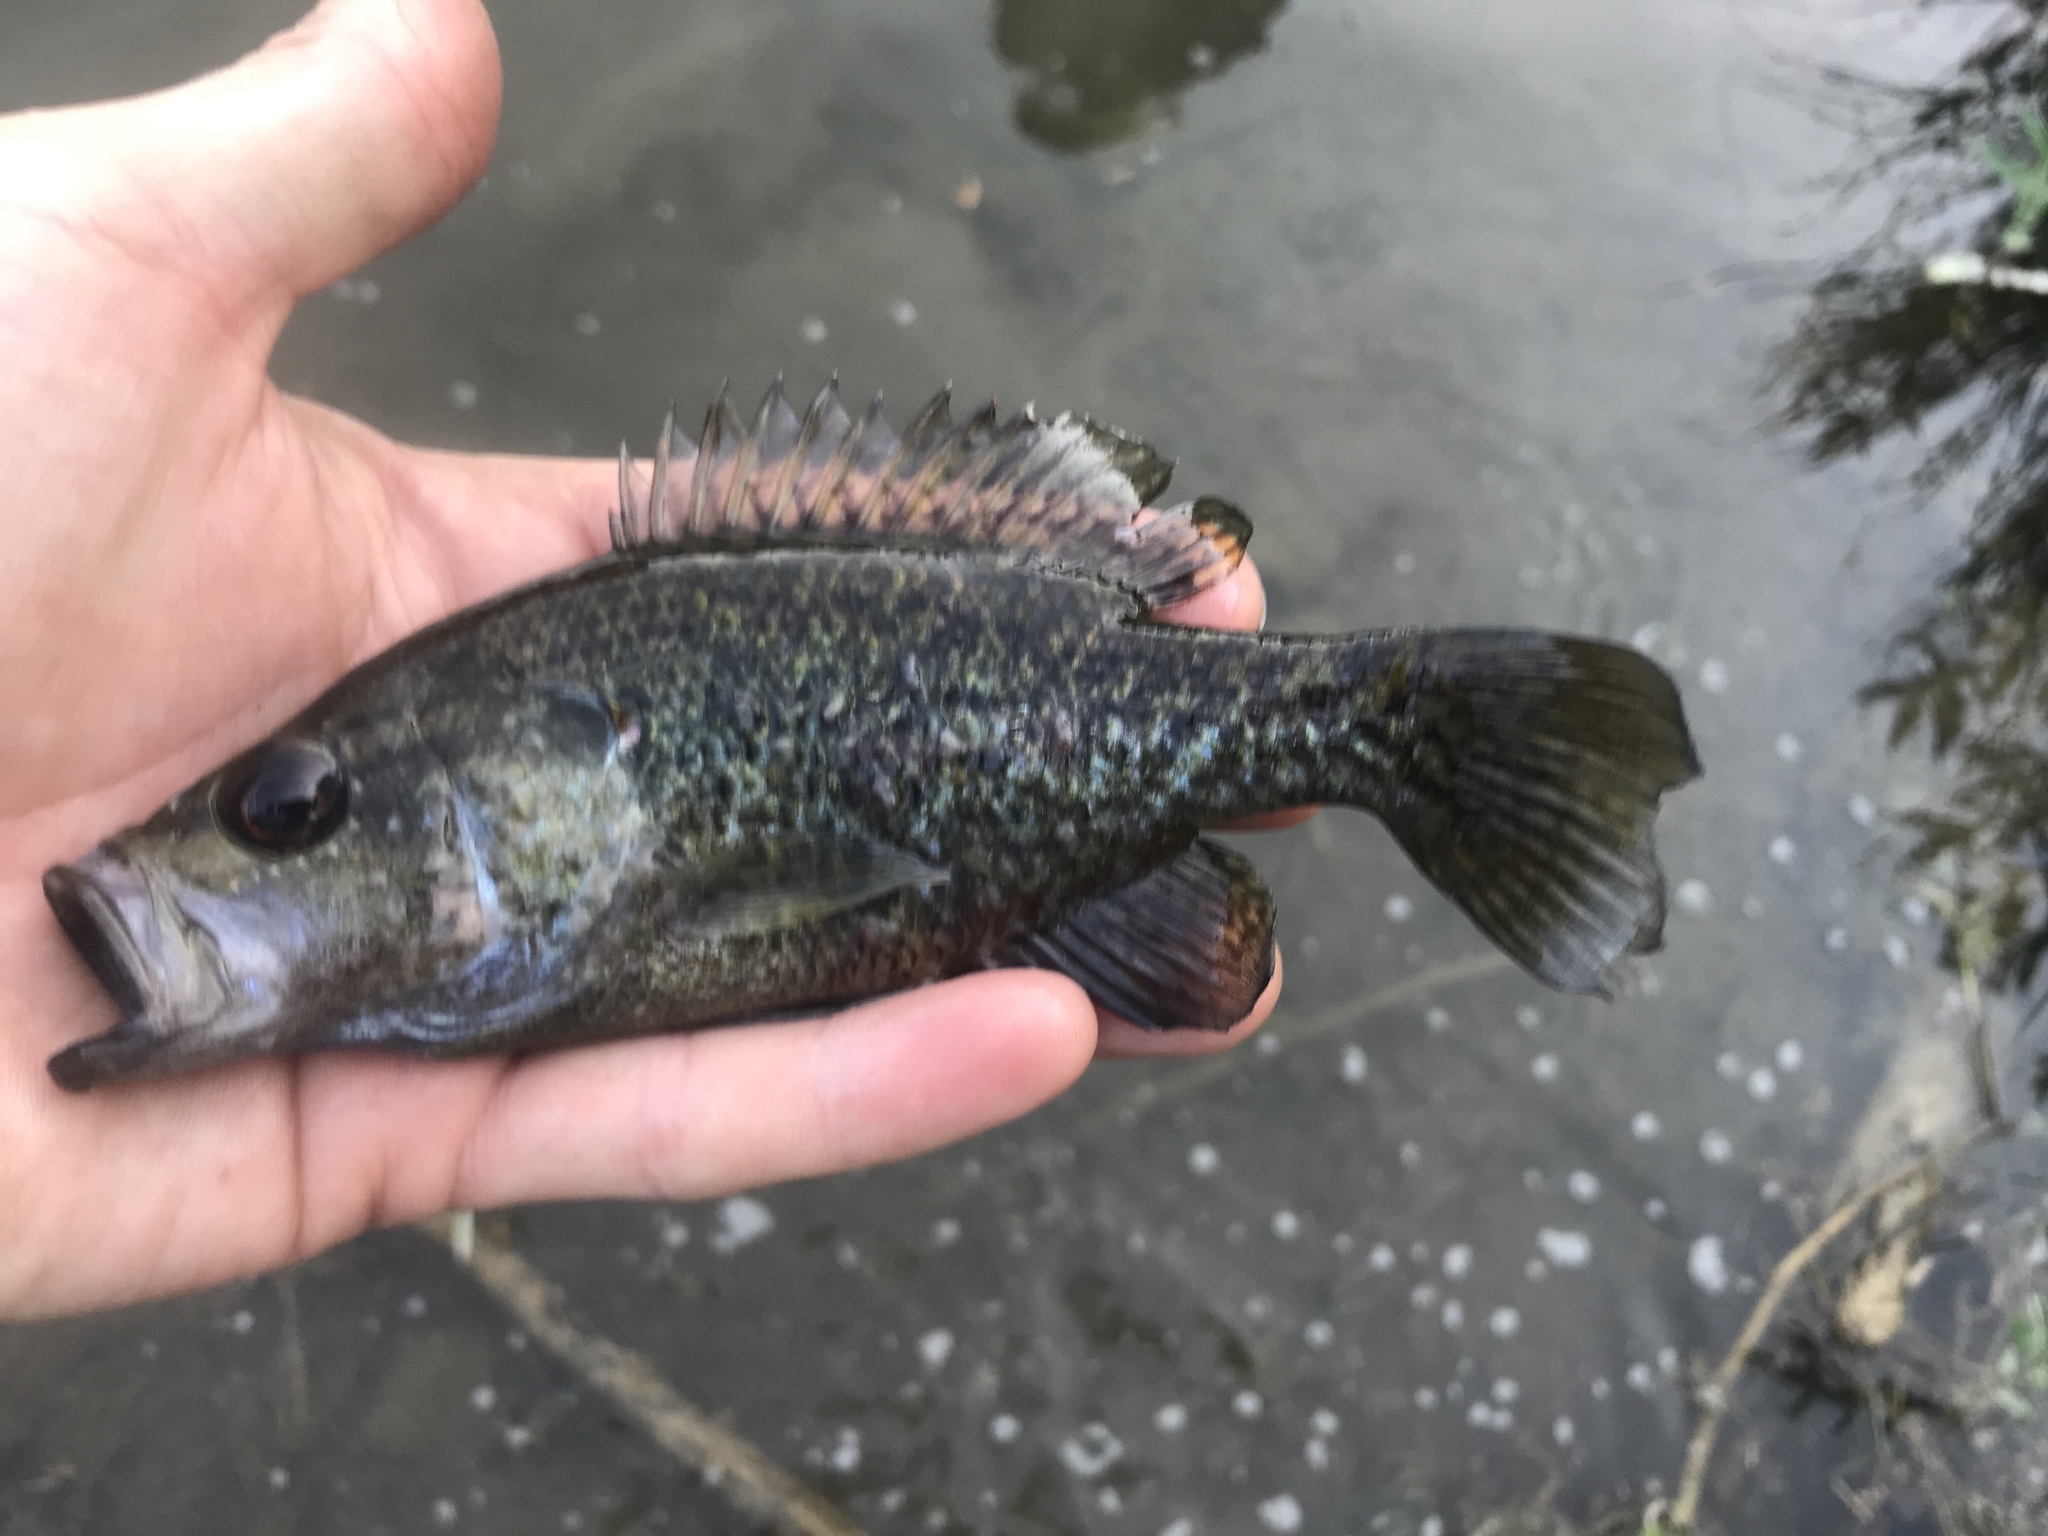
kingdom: Animalia
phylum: Chordata
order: Perciformes
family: Centrarchidae
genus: Lepomis
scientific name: Lepomis gulosus
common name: Warmouth
